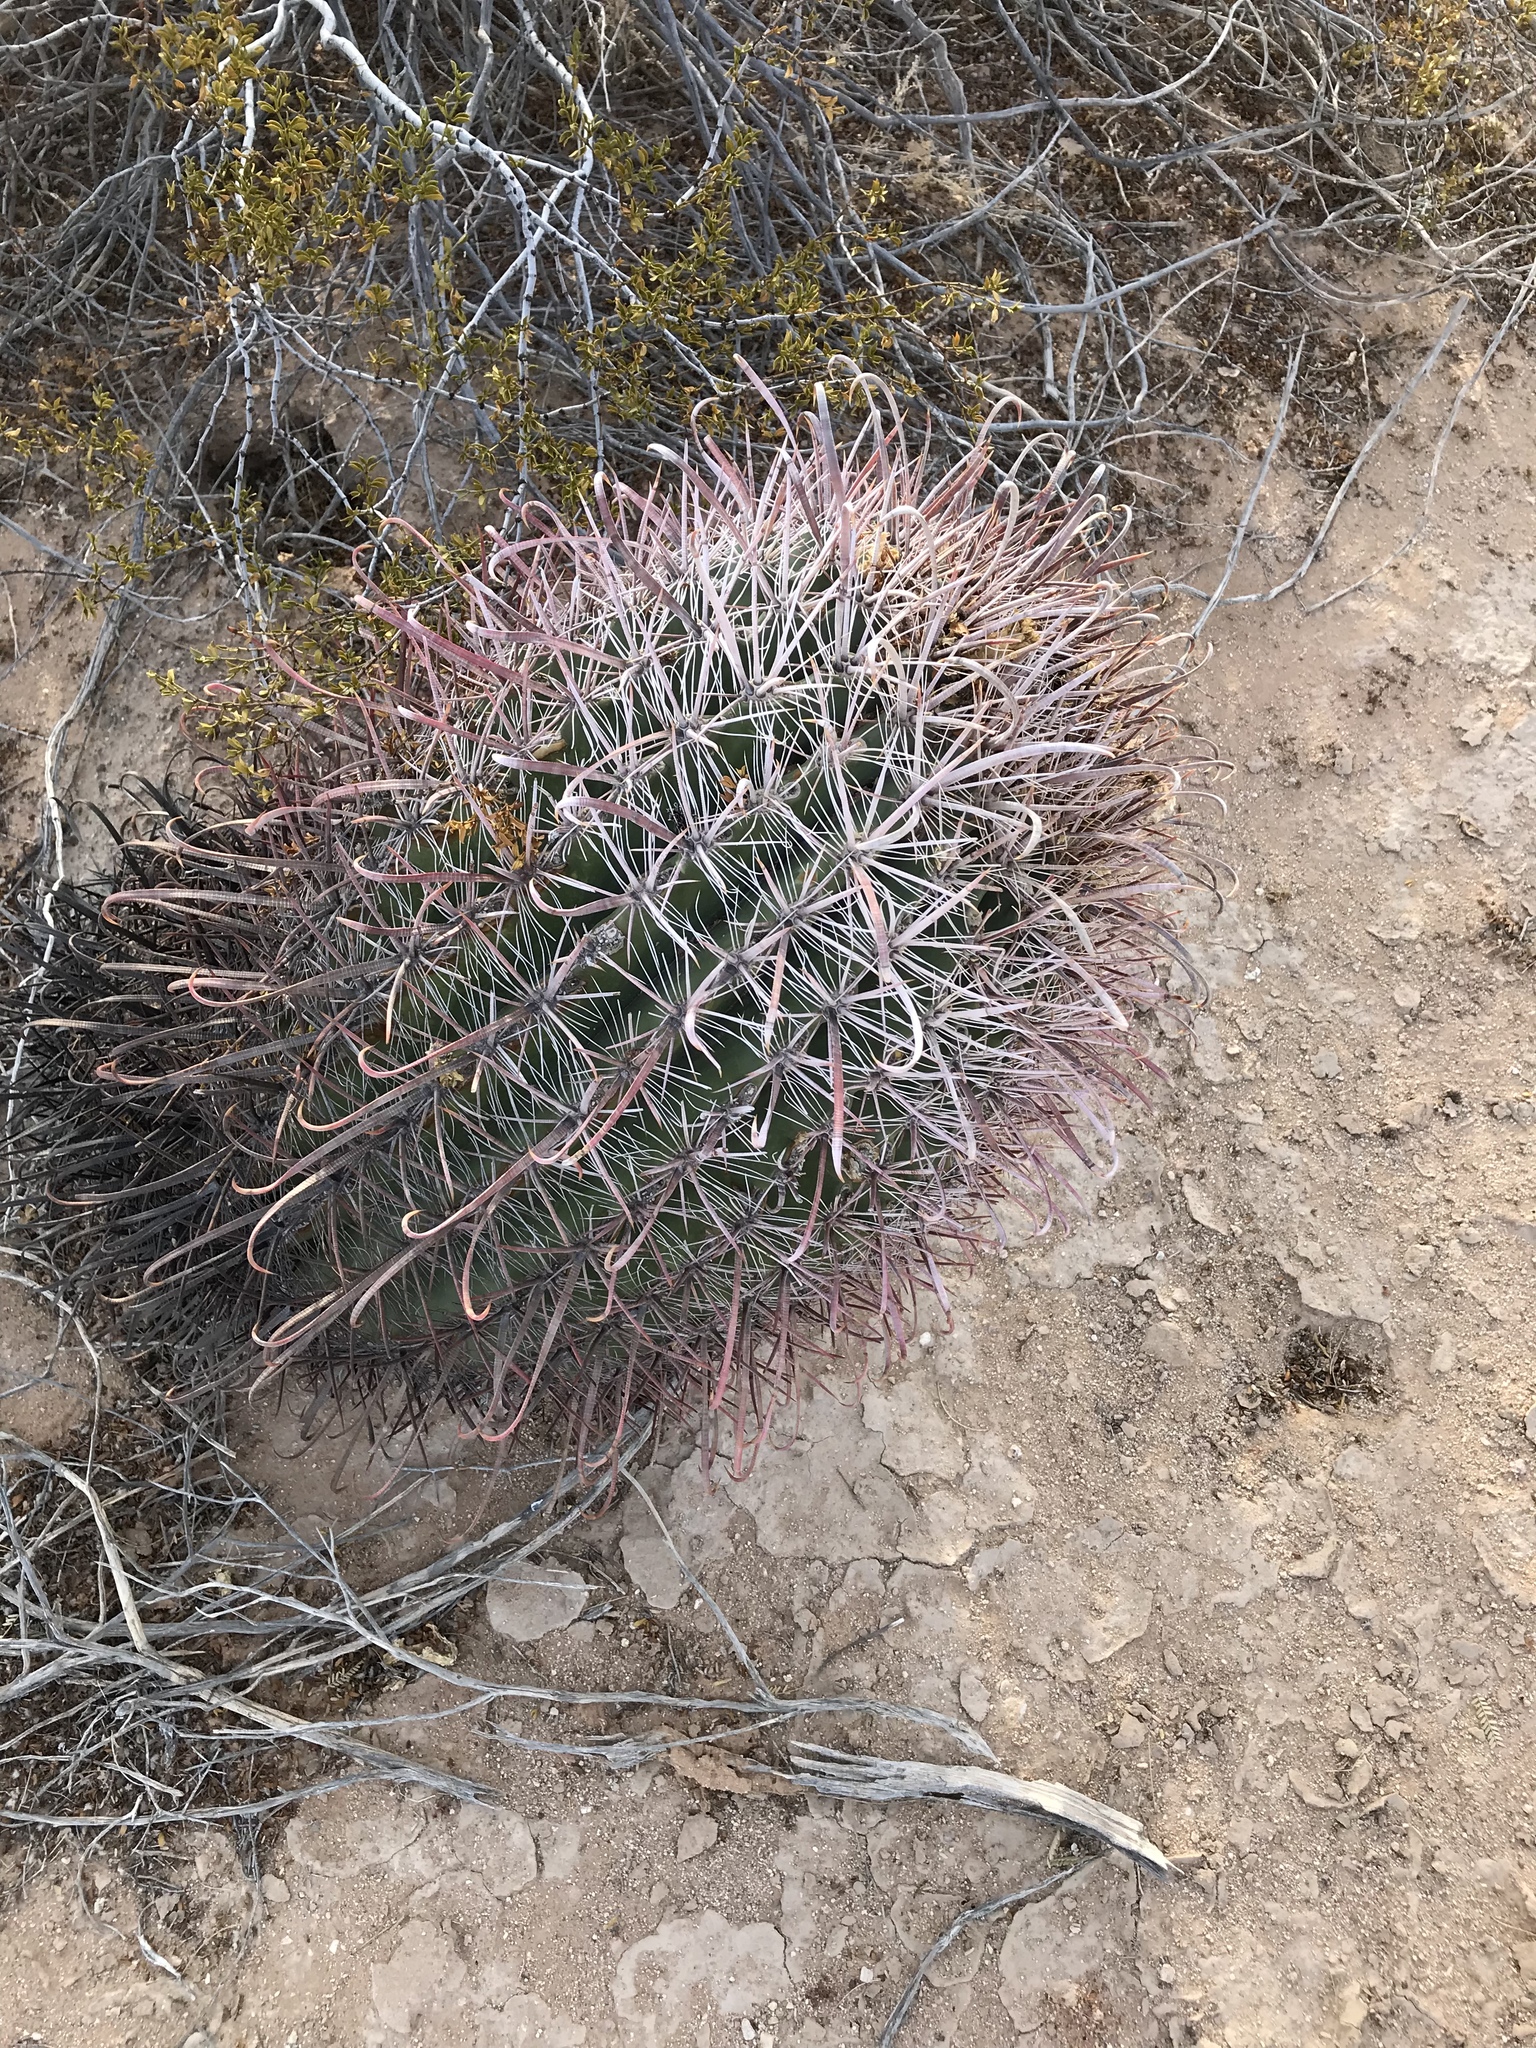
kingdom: Plantae
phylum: Tracheophyta
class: Magnoliopsida
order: Caryophyllales
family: Cactaceae
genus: Ferocactus
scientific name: Ferocactus wislizeni
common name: Candy barrel cactus
